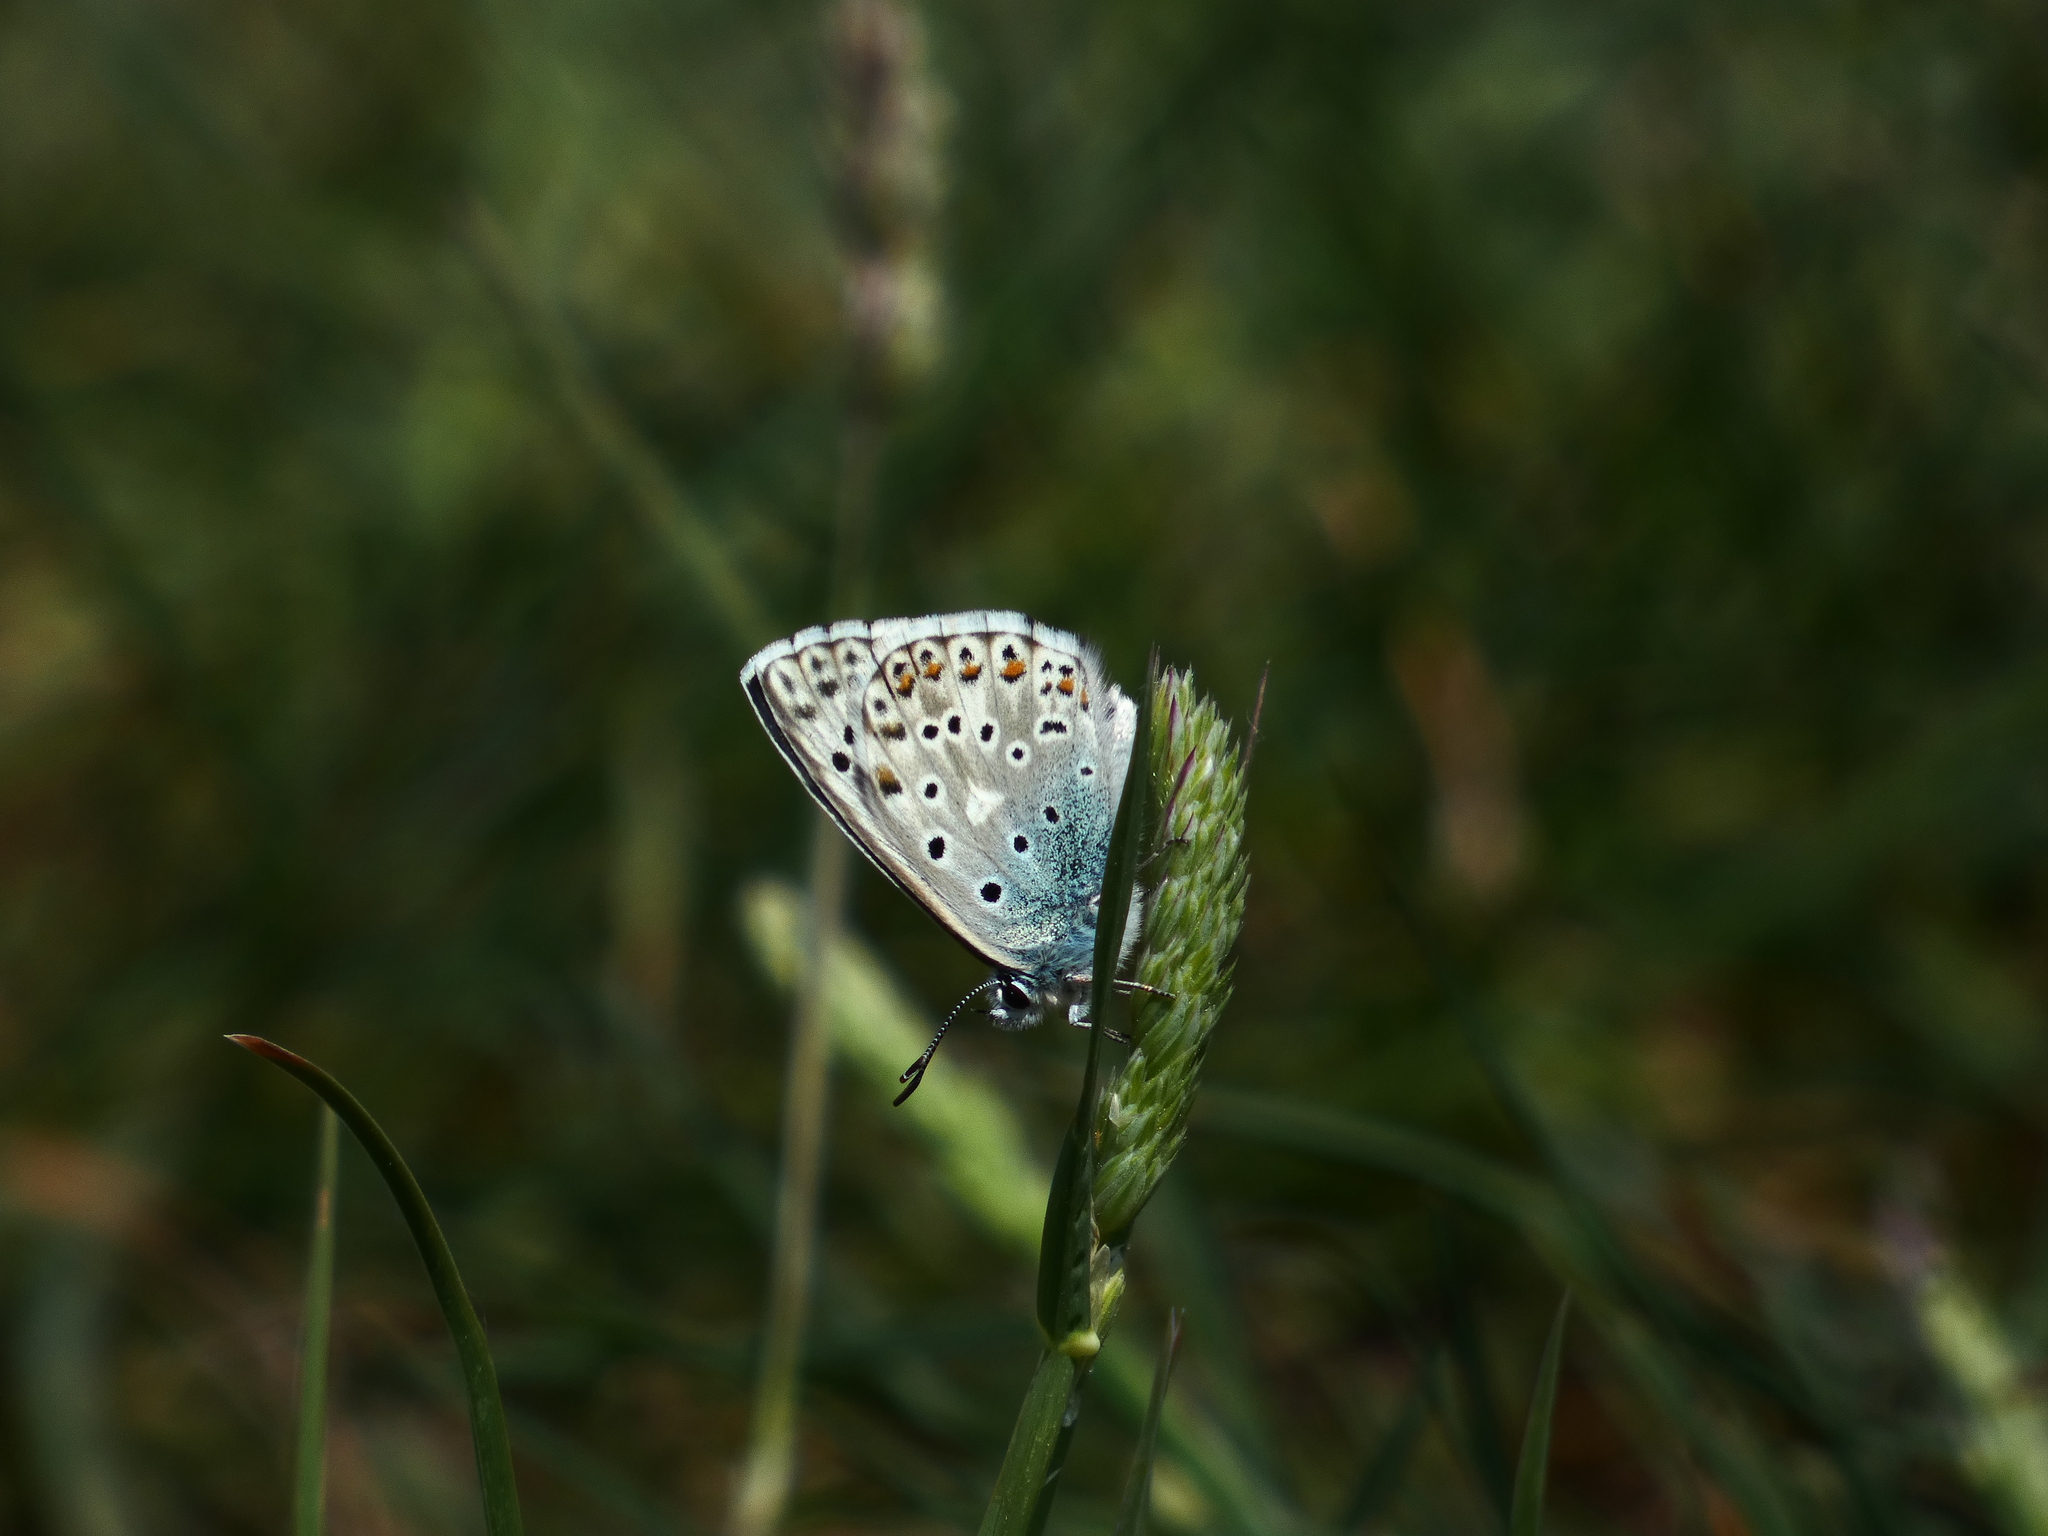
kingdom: Animalia
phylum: Arthropoda
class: Insecta
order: Lepidoptera
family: Lycaenidae
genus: Lysandra
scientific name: Lysandra hispana
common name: Provence chalkhill blue
